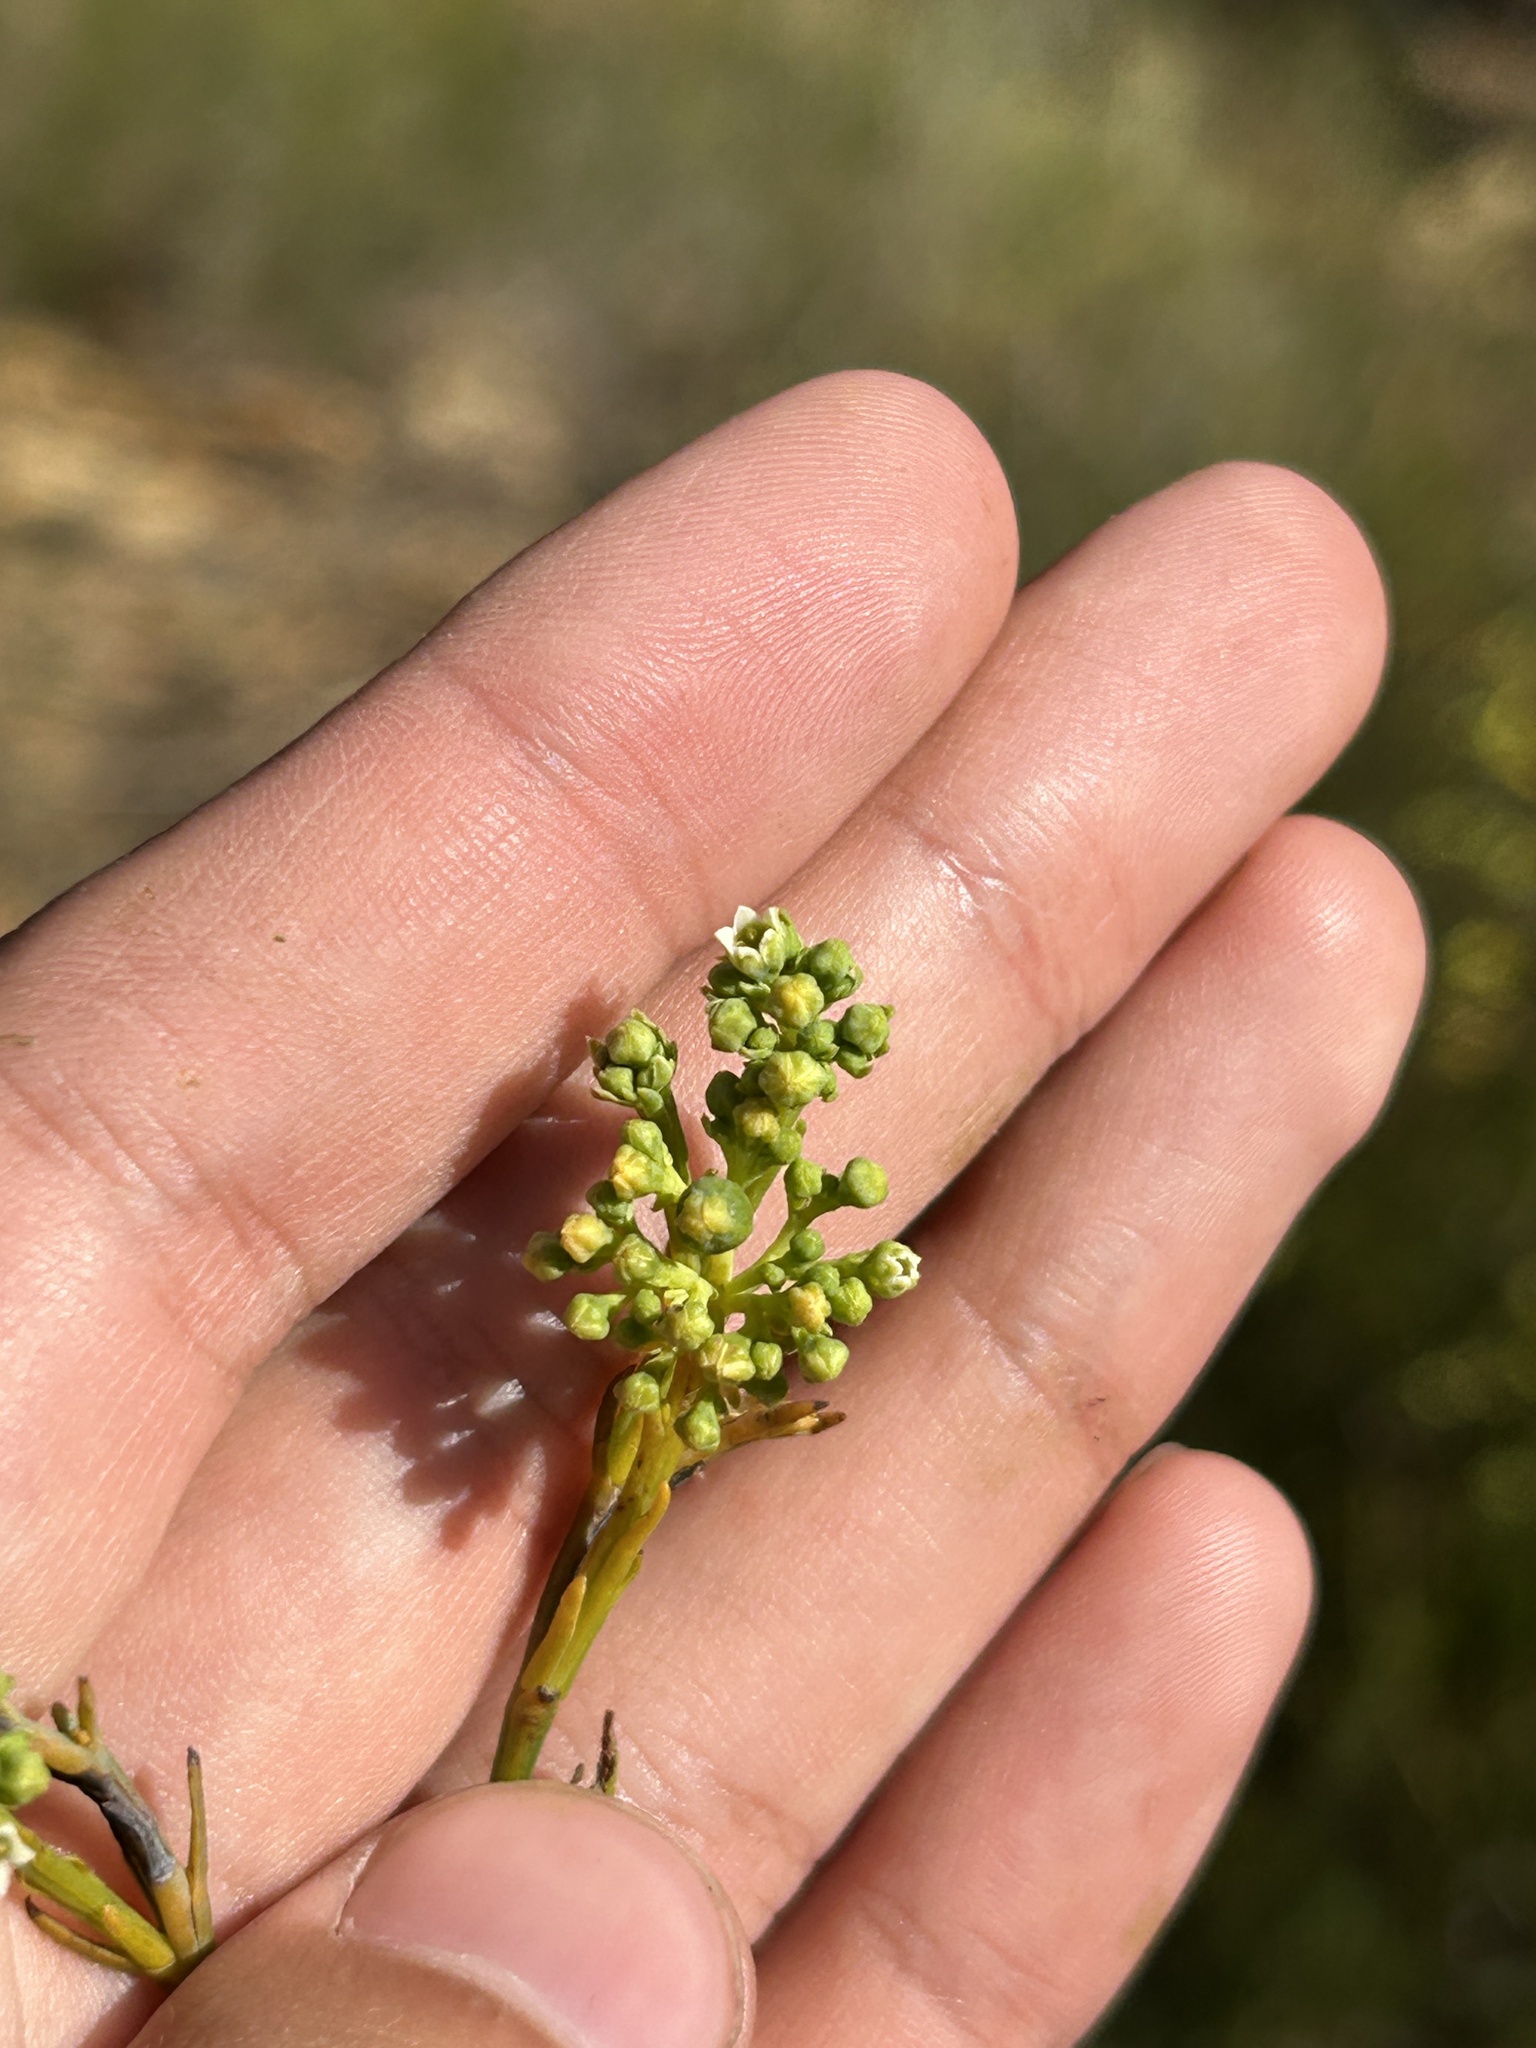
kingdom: Plantae
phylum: Tracheophyta
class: Magnoliopsida
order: Santalales
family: Thesiaceae
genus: Thesium
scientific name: Thesium strictum
